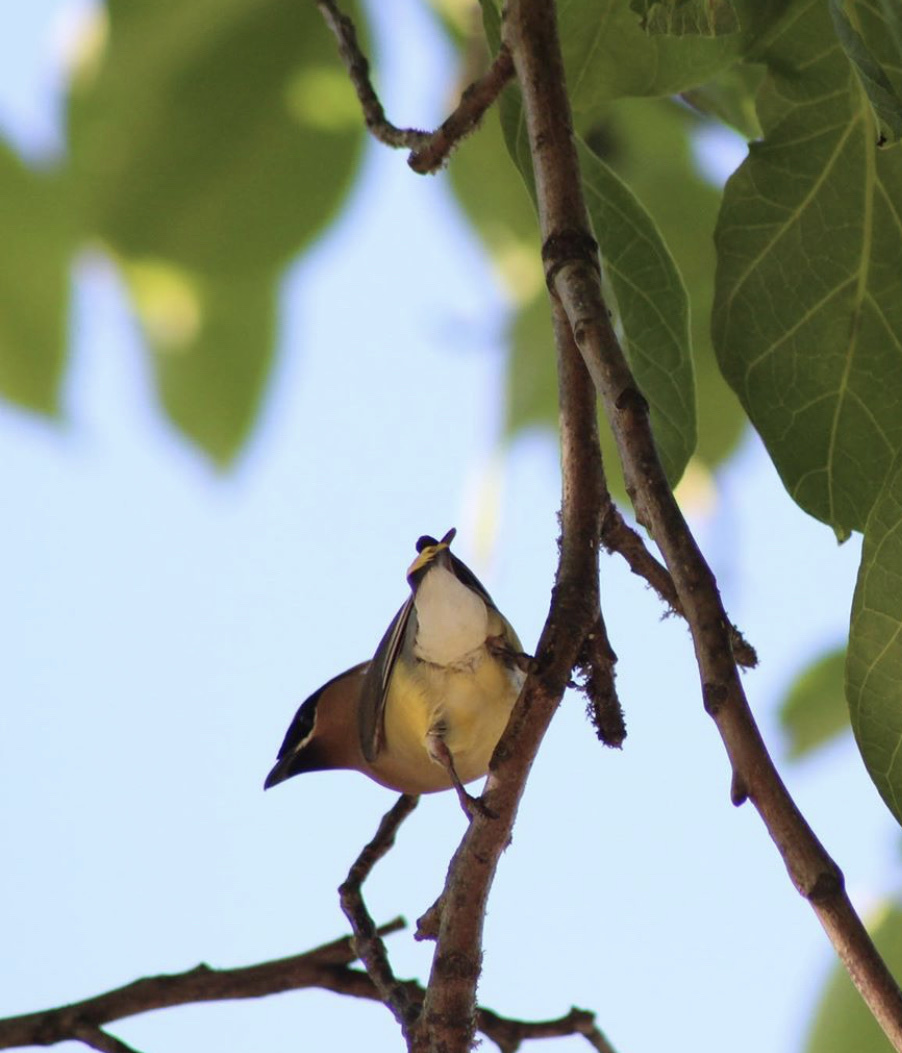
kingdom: Animalia
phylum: Chordata
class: Aves
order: Passeriformes
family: Bombycillidae
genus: Bombycilla
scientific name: Bombycilla cedrorum
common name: Cedar waxwing
